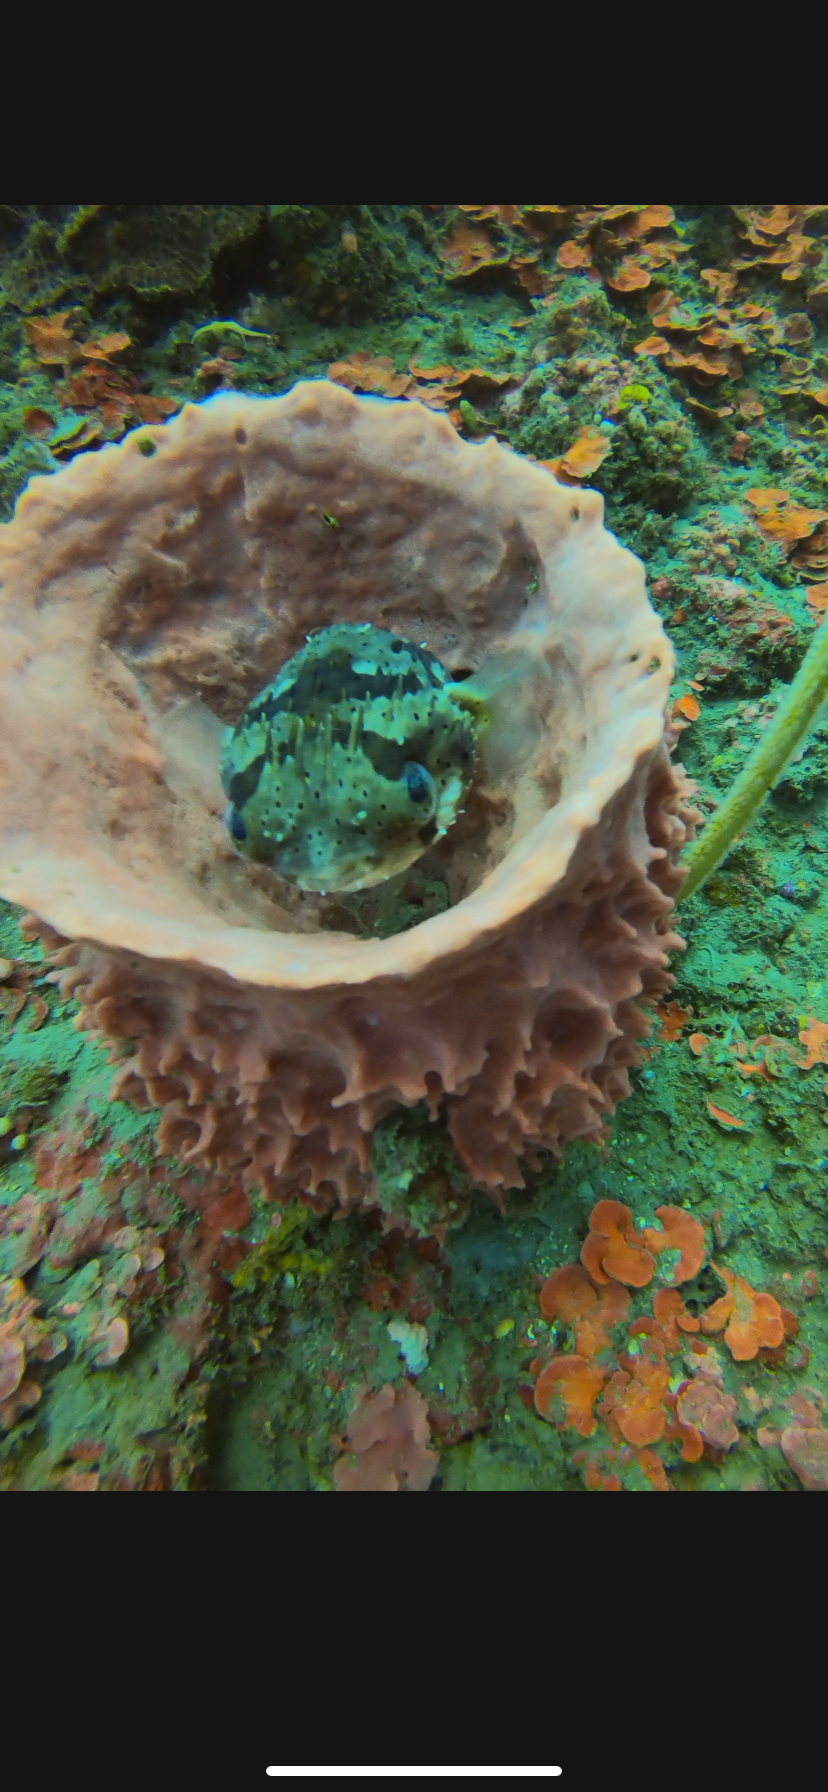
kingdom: Animalia
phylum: Chordata
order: Tetraodontiformes
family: Diodontidae
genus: Diodon
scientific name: Diodon holocanthus
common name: Balloonfish
